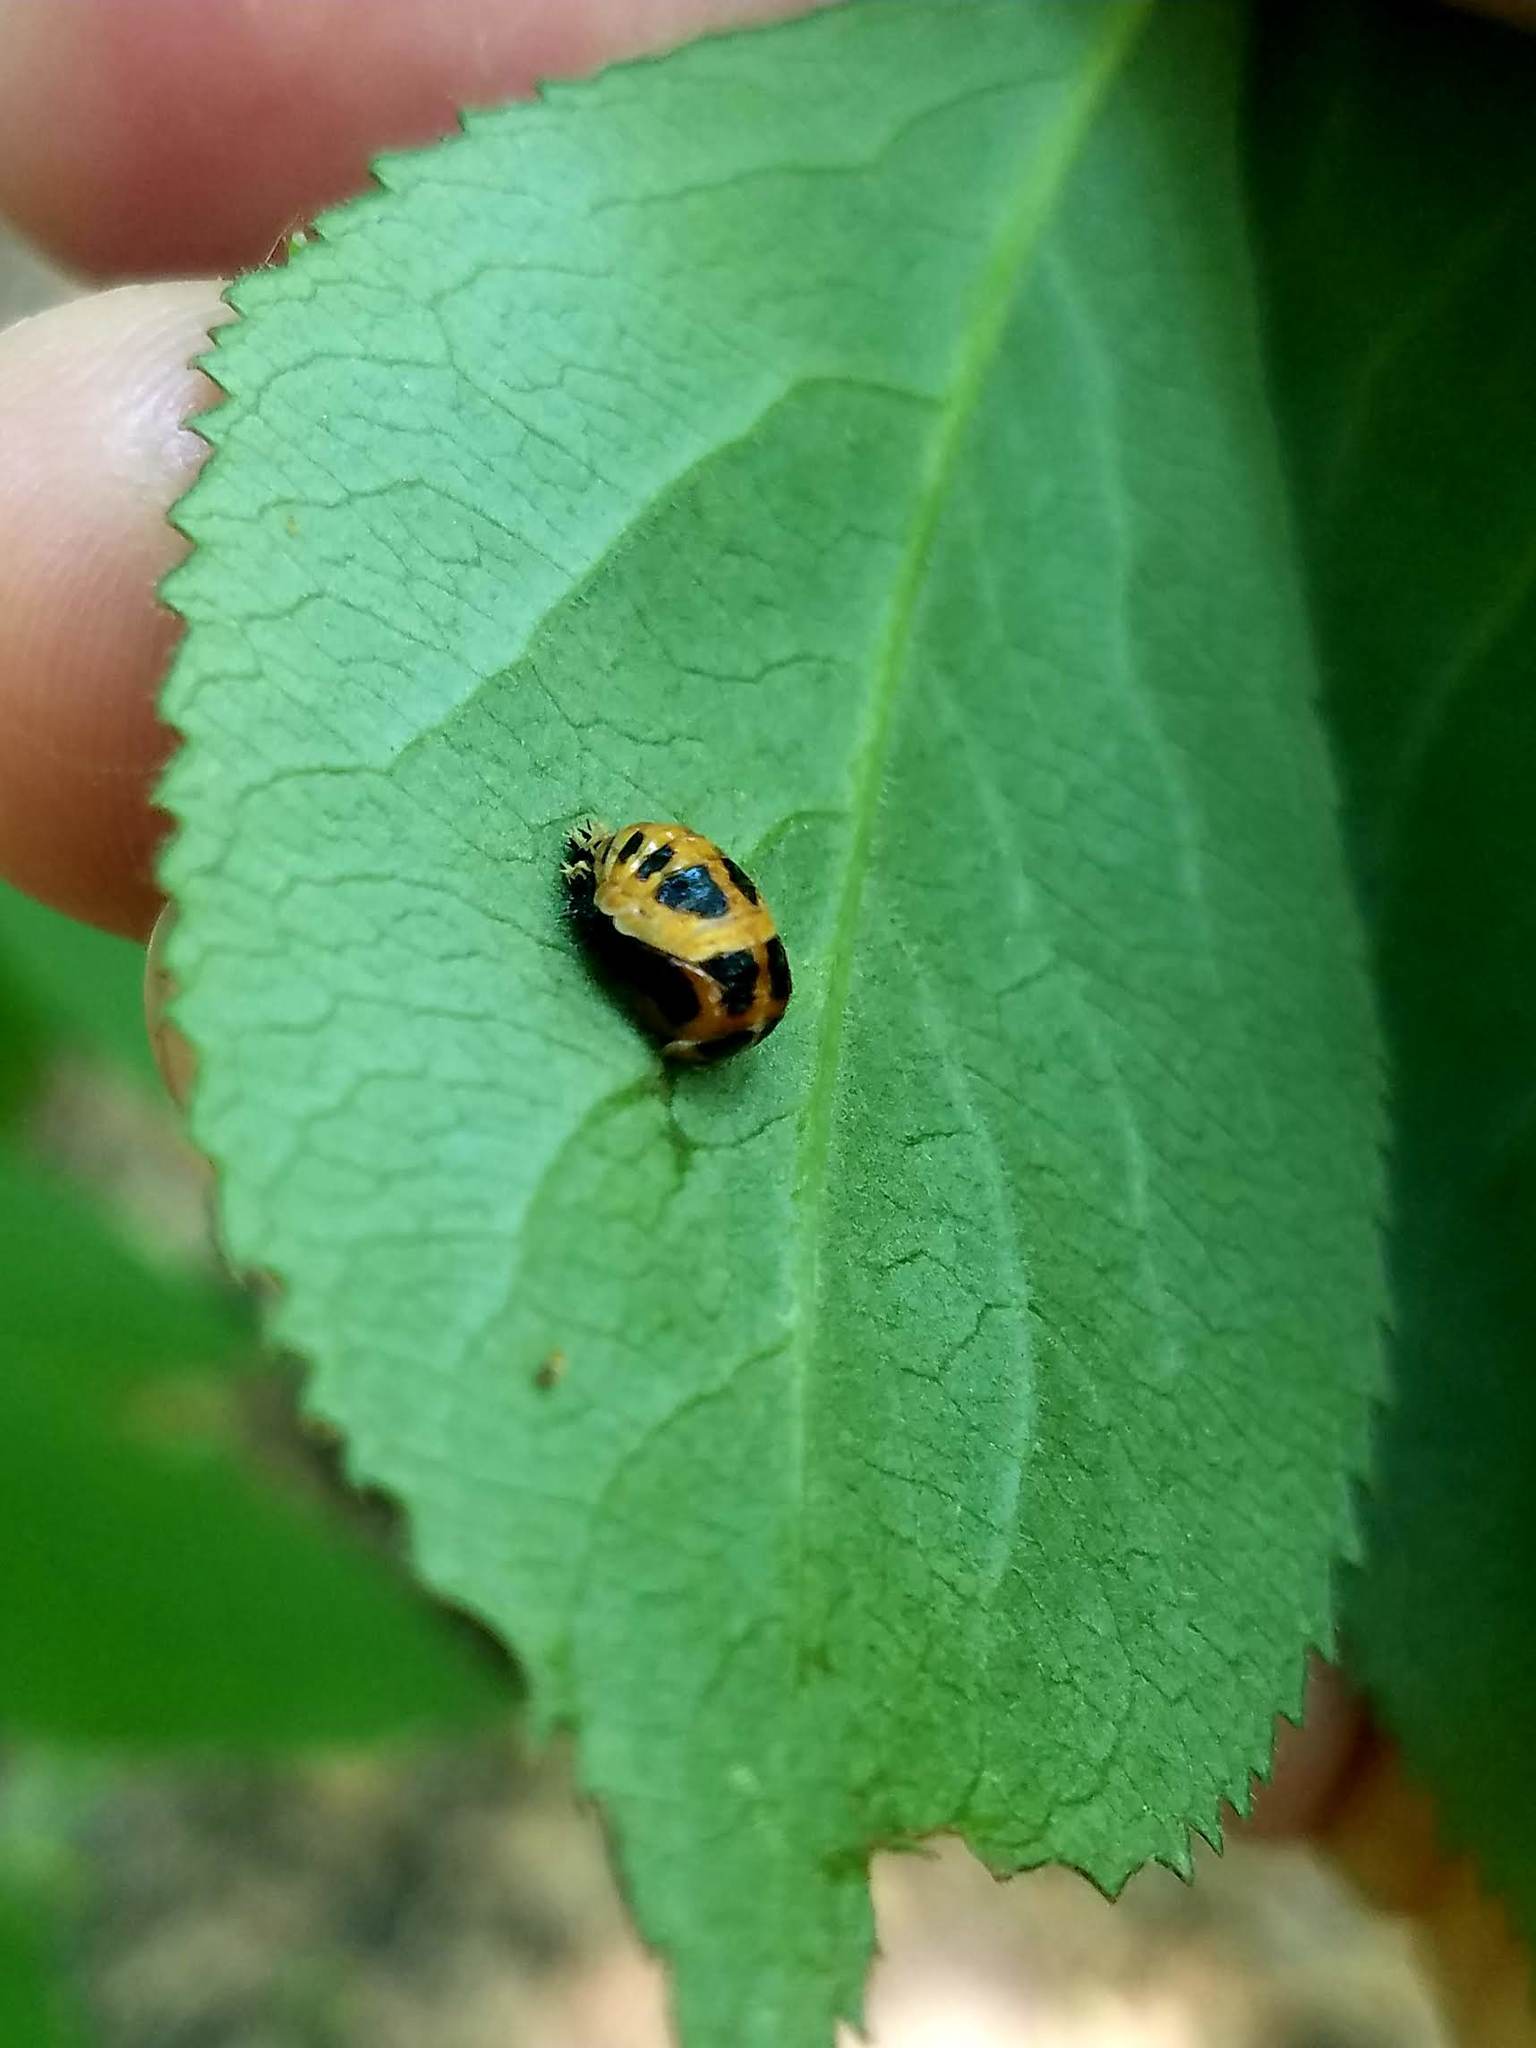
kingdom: Animalia
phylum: Arthropoda
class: Insecta
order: Coleoptera
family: Coccinellidae
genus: Harmonia
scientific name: Harmonia axyridis
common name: Harlequin ladybird
